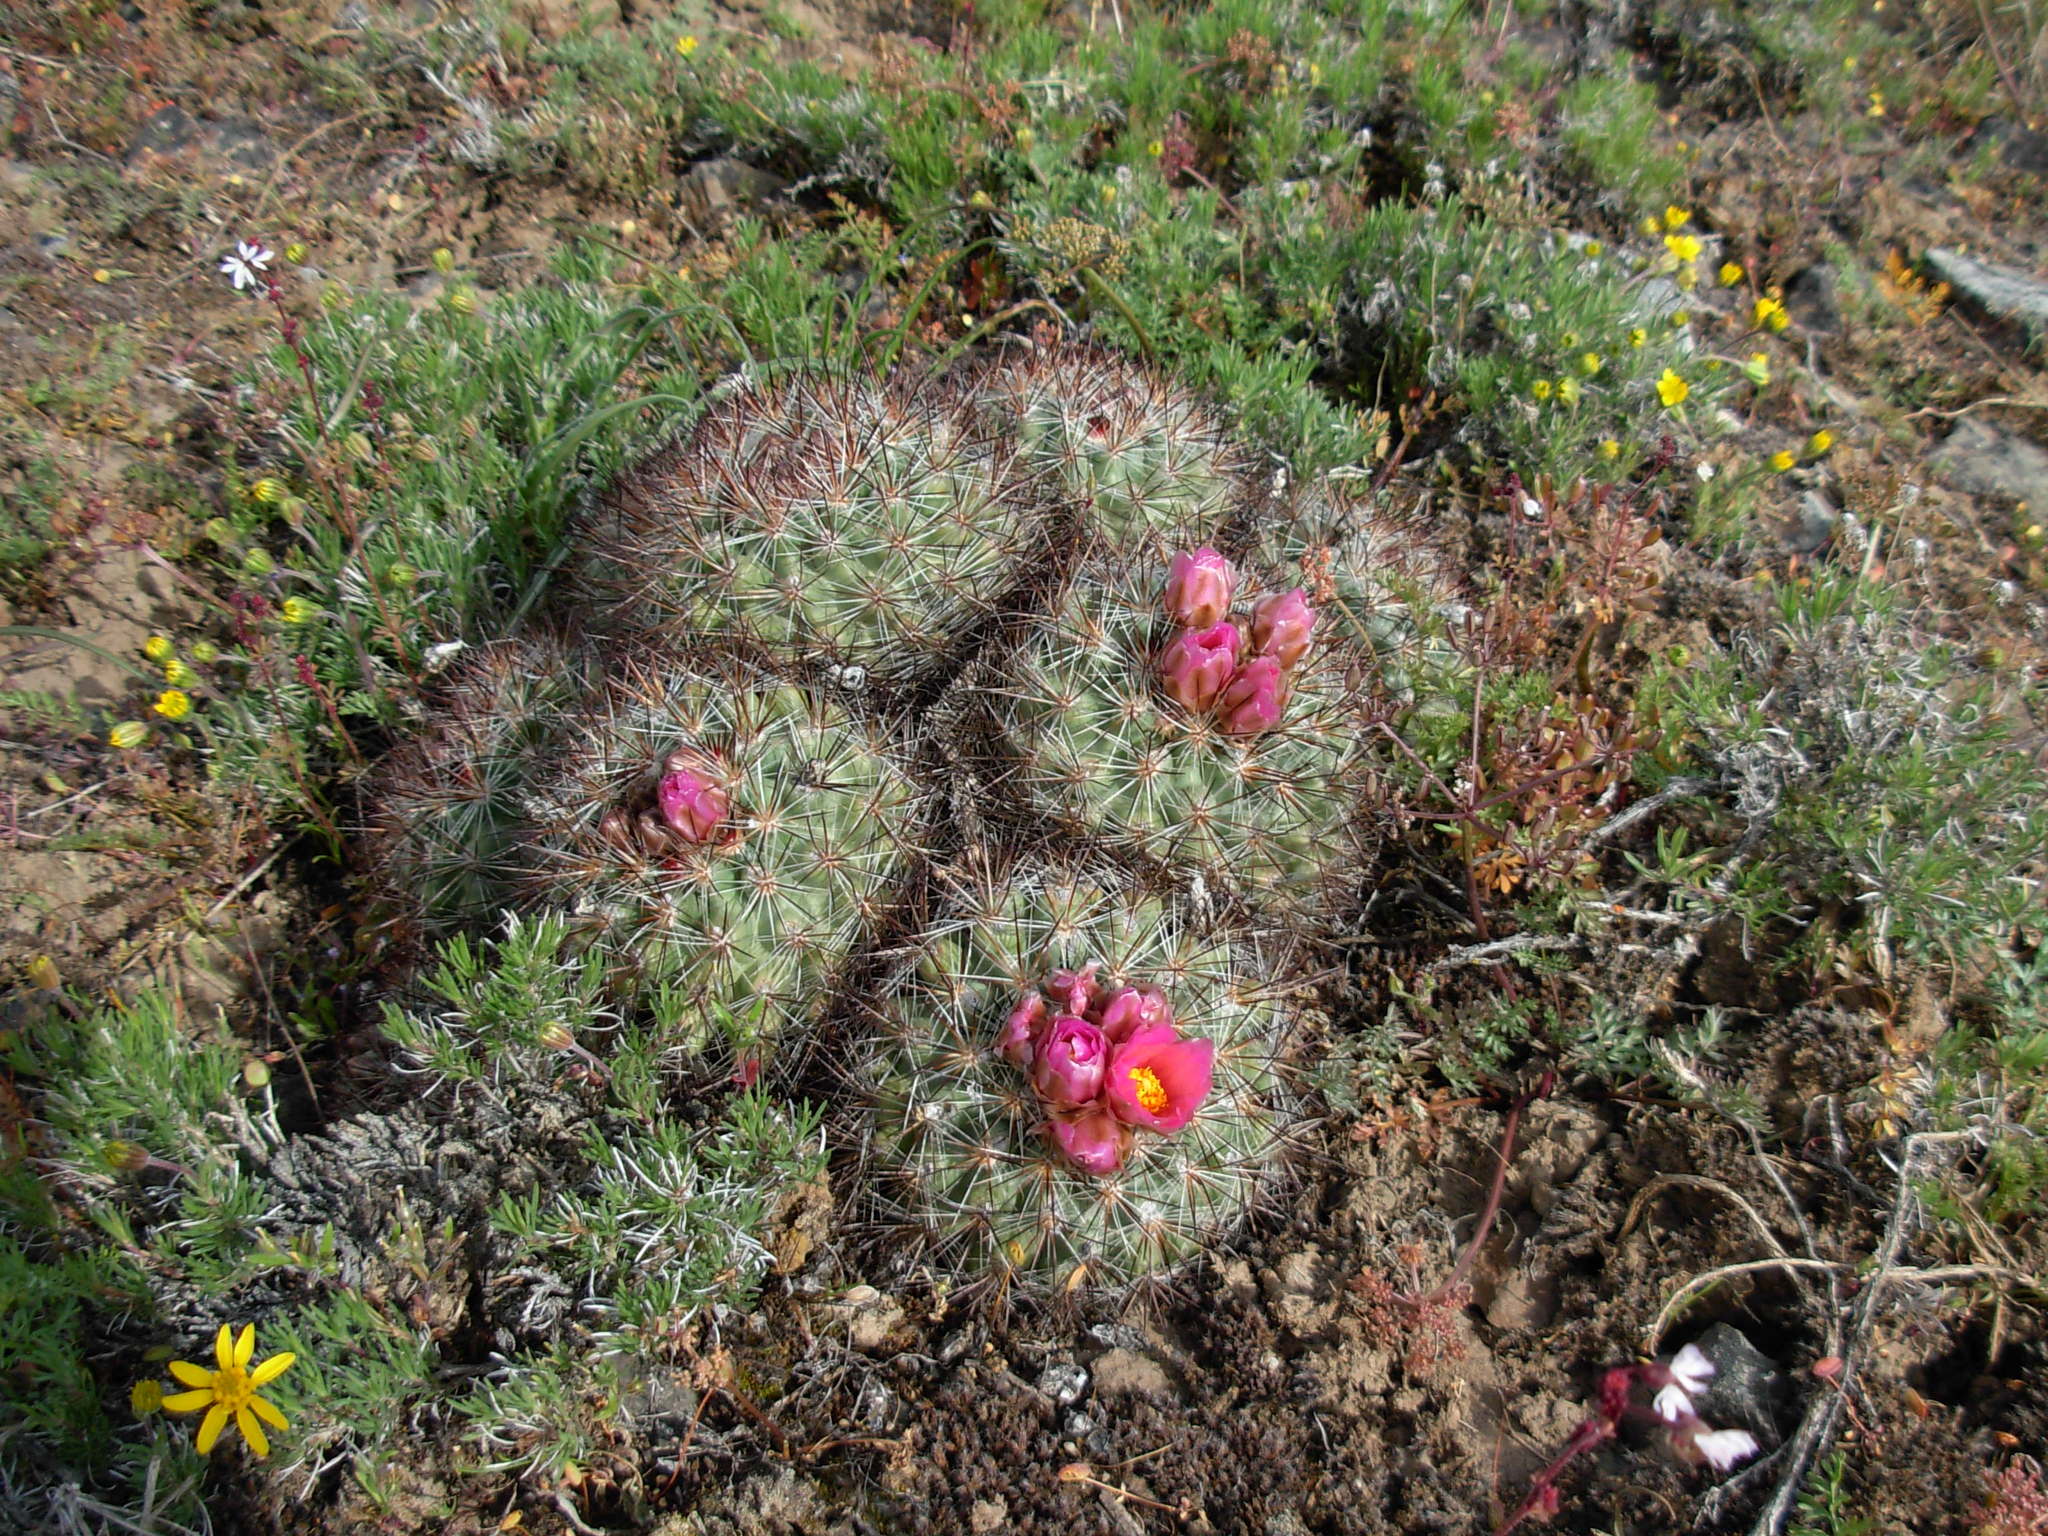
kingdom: Plantae
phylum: Tracheophyta
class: Magnoliopsida
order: Caryophyllales
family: Cactaceae
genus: Pediocactus
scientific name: Pediocactus nigrispinus
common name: Simpson's hedgehog cactus
